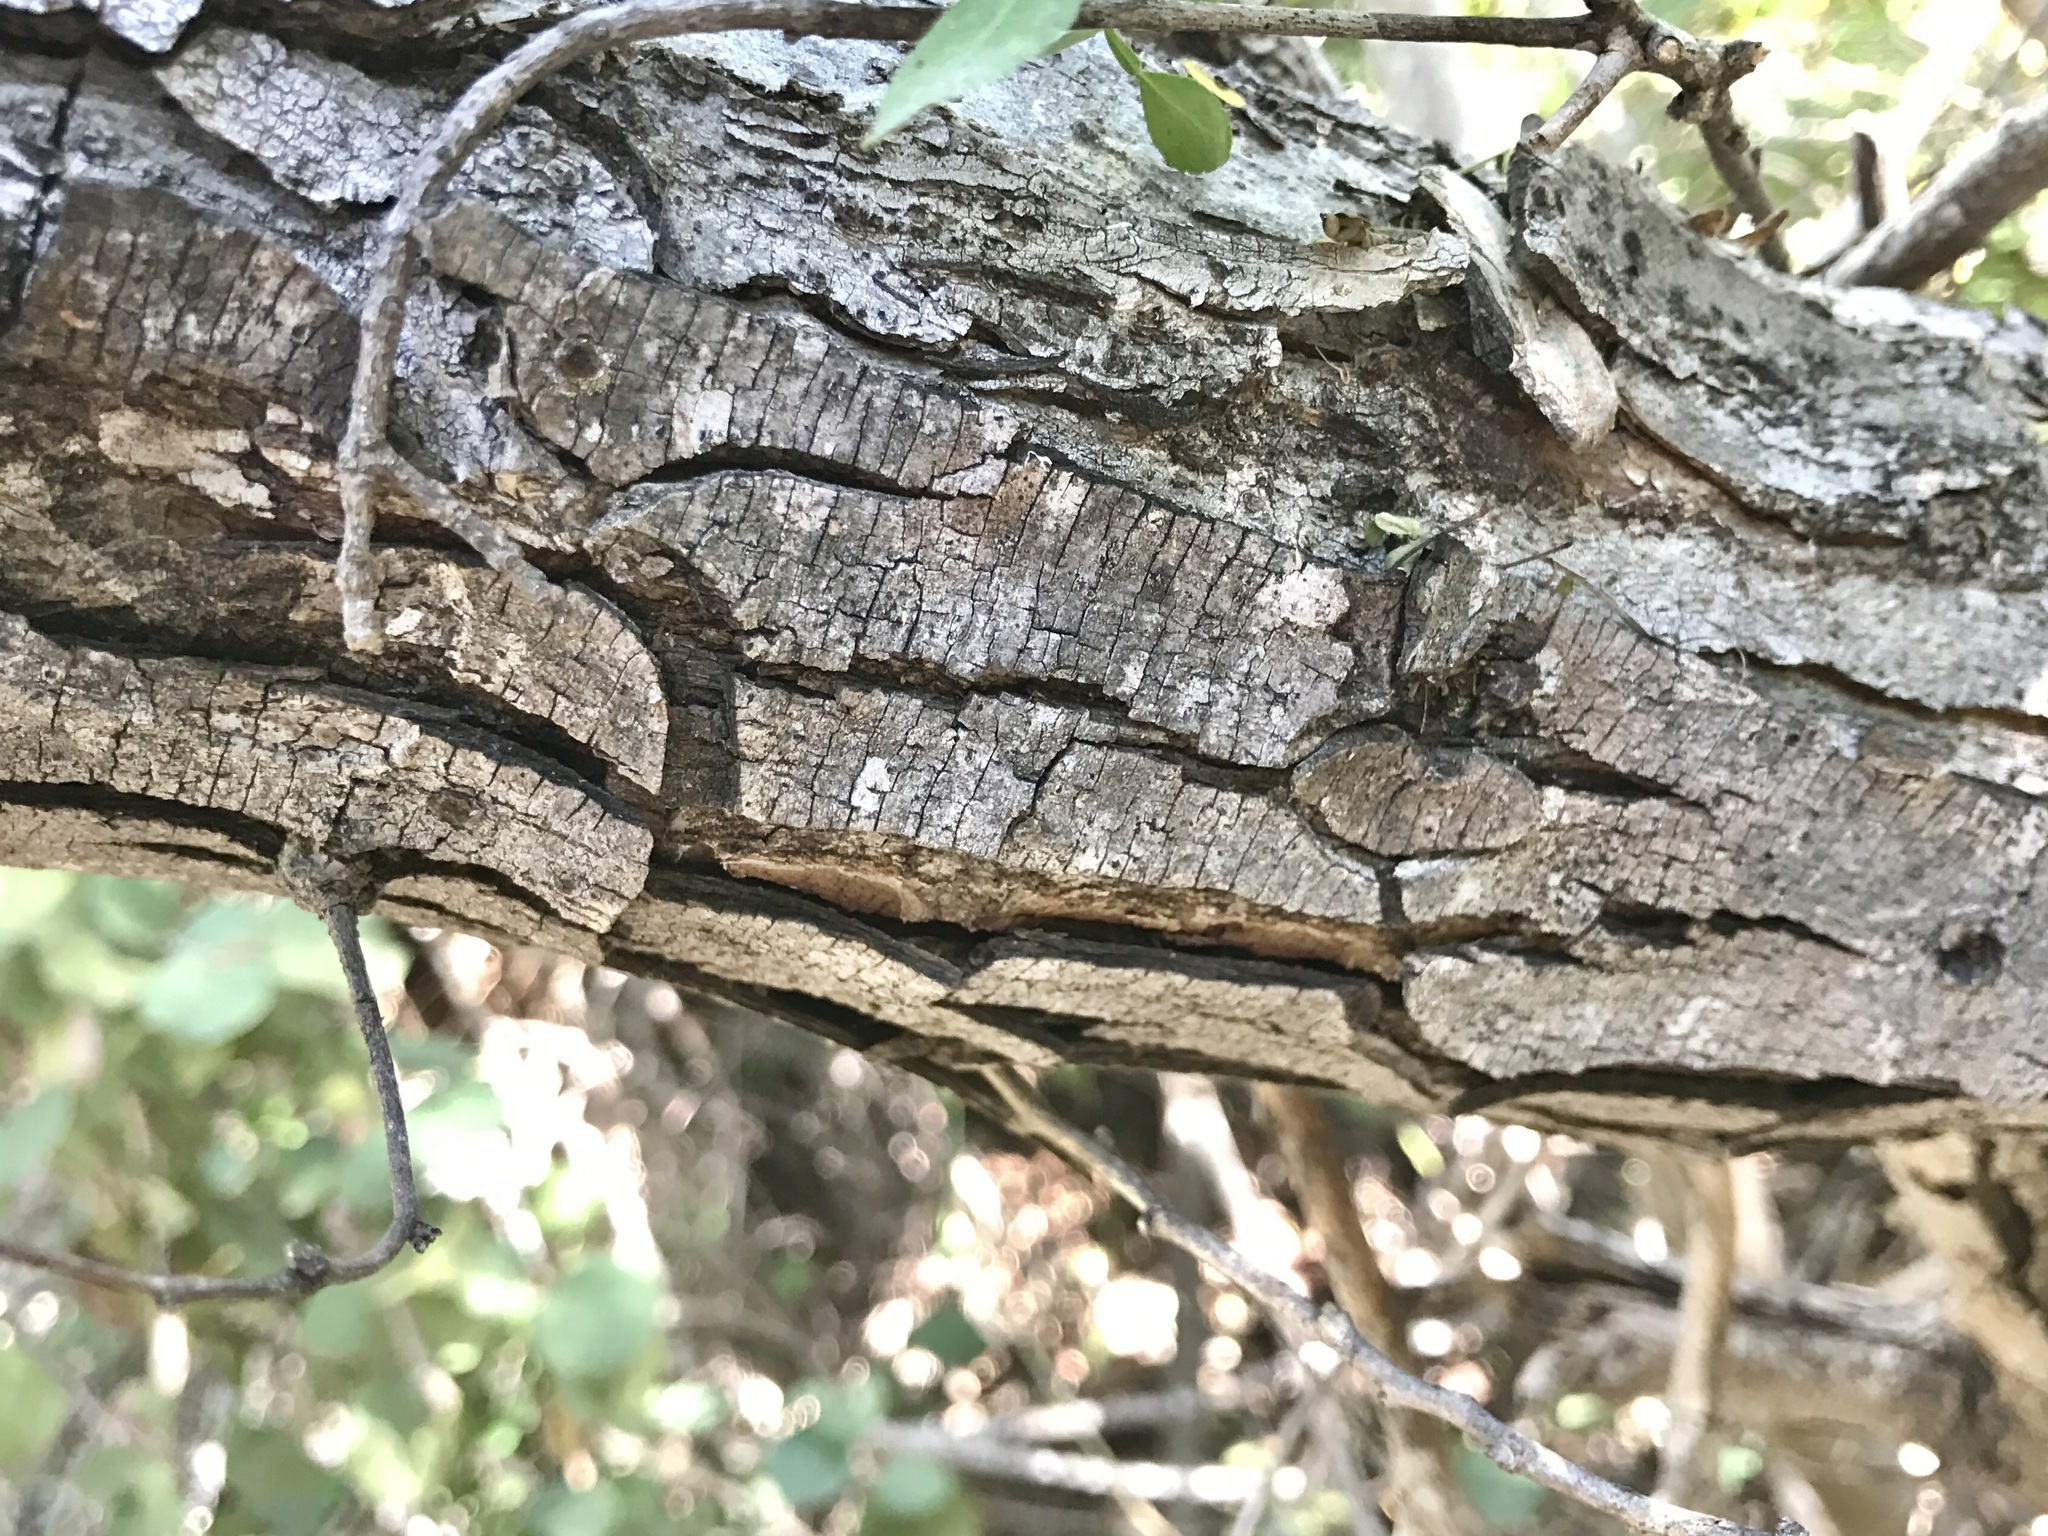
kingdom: Plantae
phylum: Tracheophyta
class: Magnoliopsida
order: Fabales
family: Fabaceae
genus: Lysiloma
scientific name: Lysiloma divaricatum
